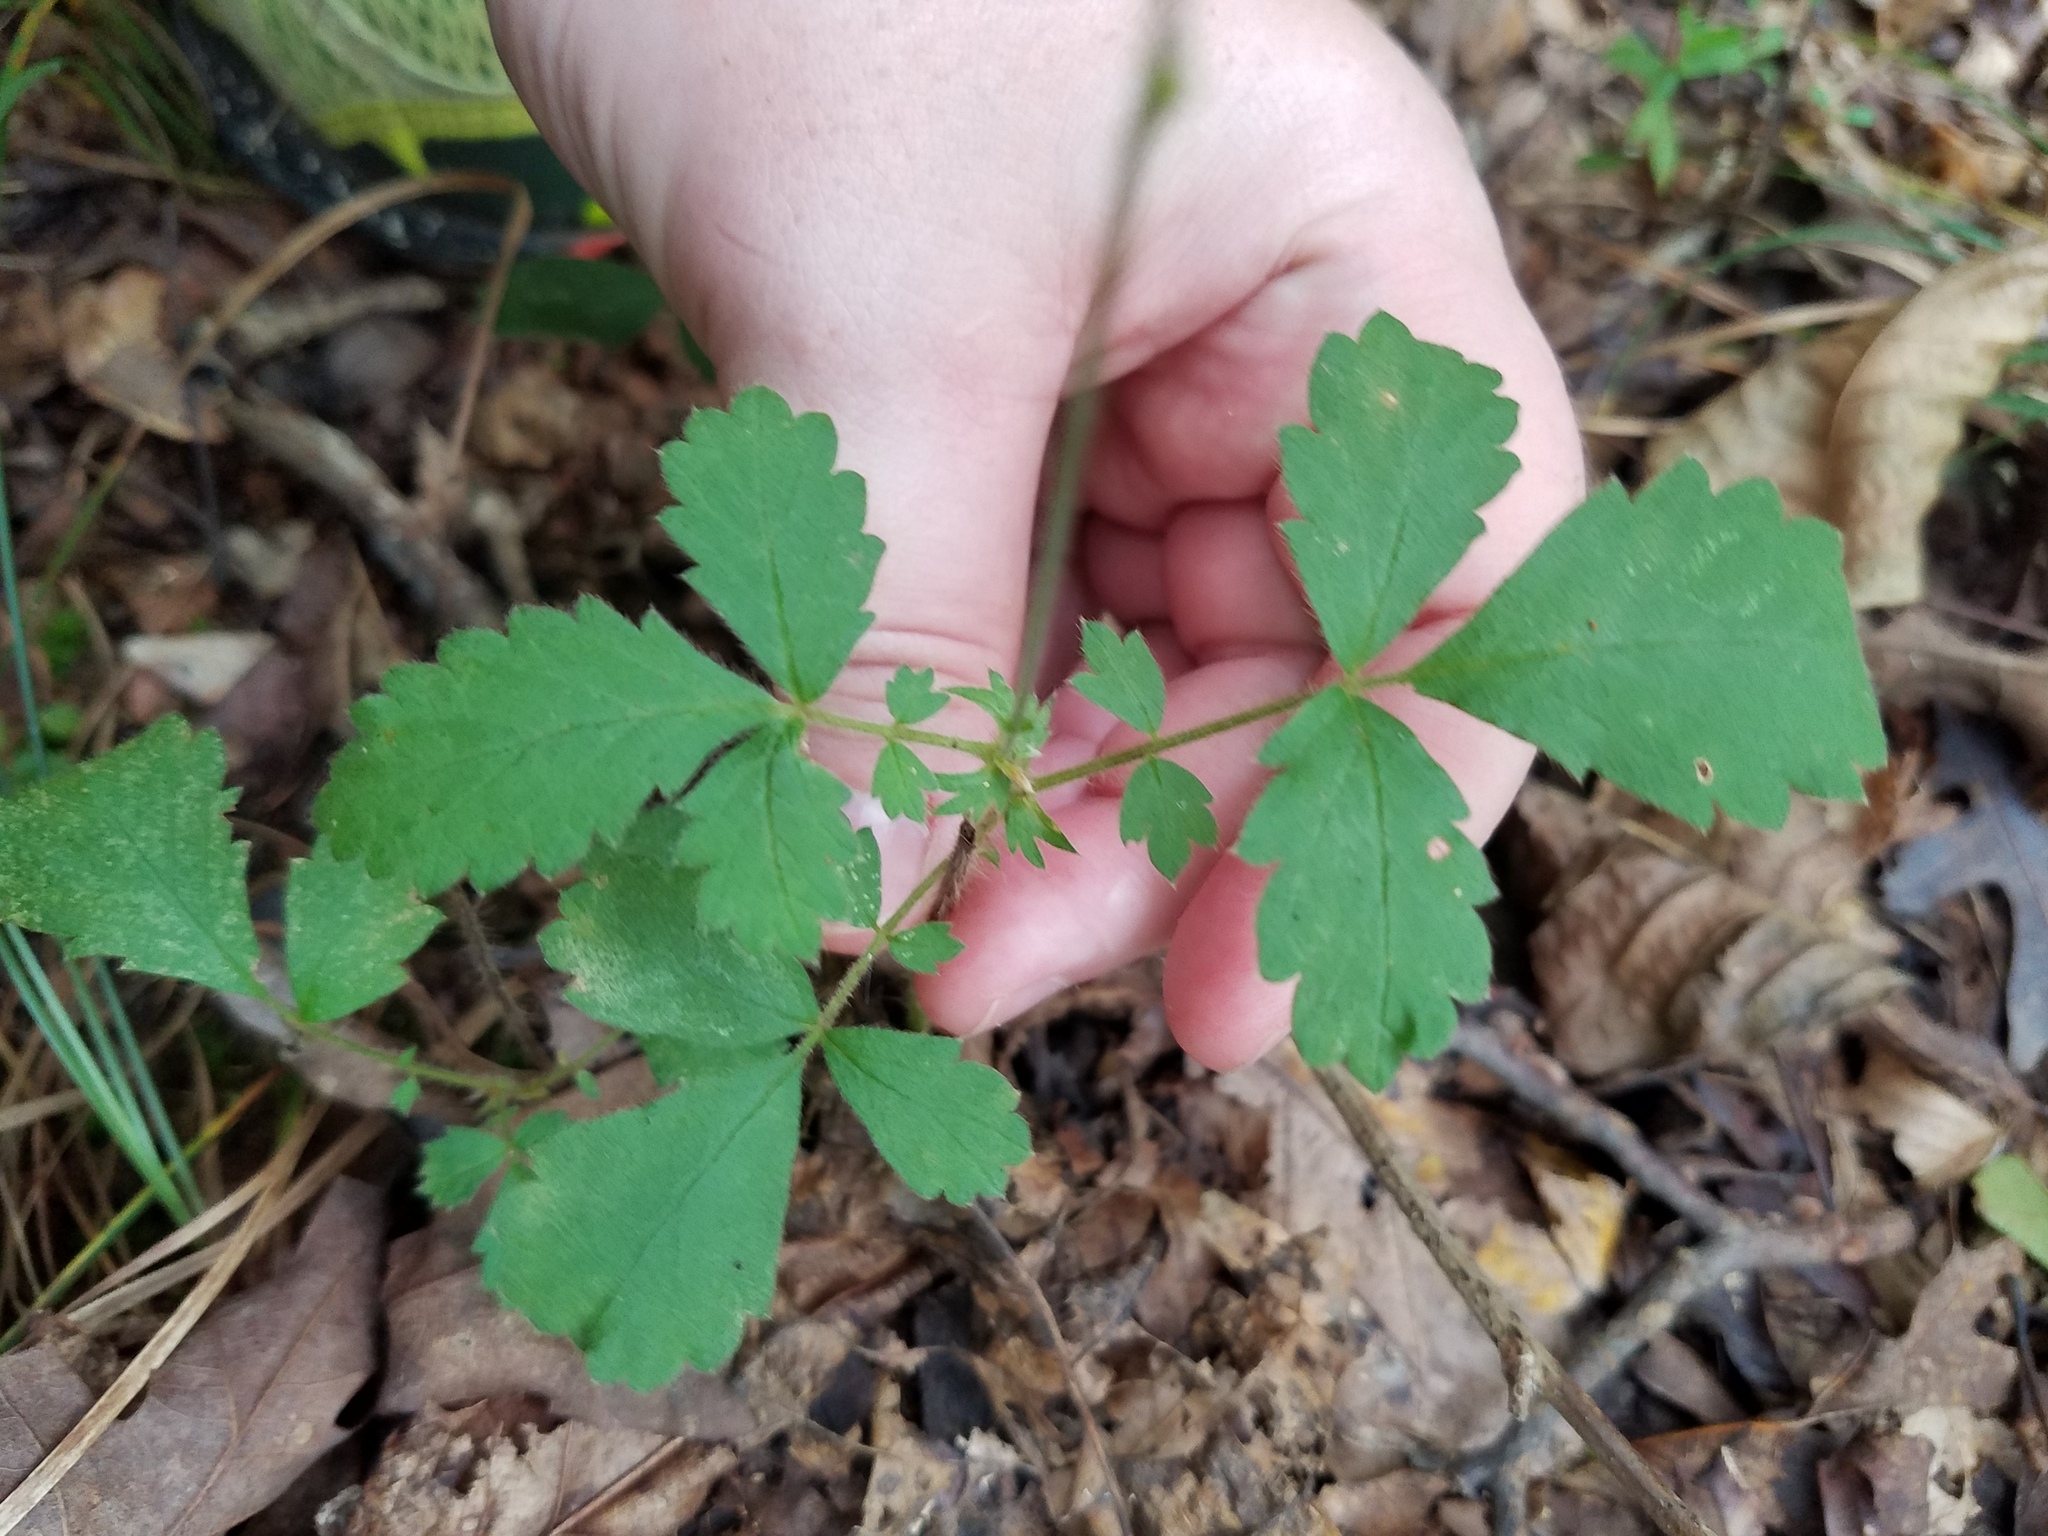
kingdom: Plantae
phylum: Tracheophyta
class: Magnoliopsida
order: Rosales
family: Rosaceae
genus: Agrimonia
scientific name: Agrimonia microcarpa
